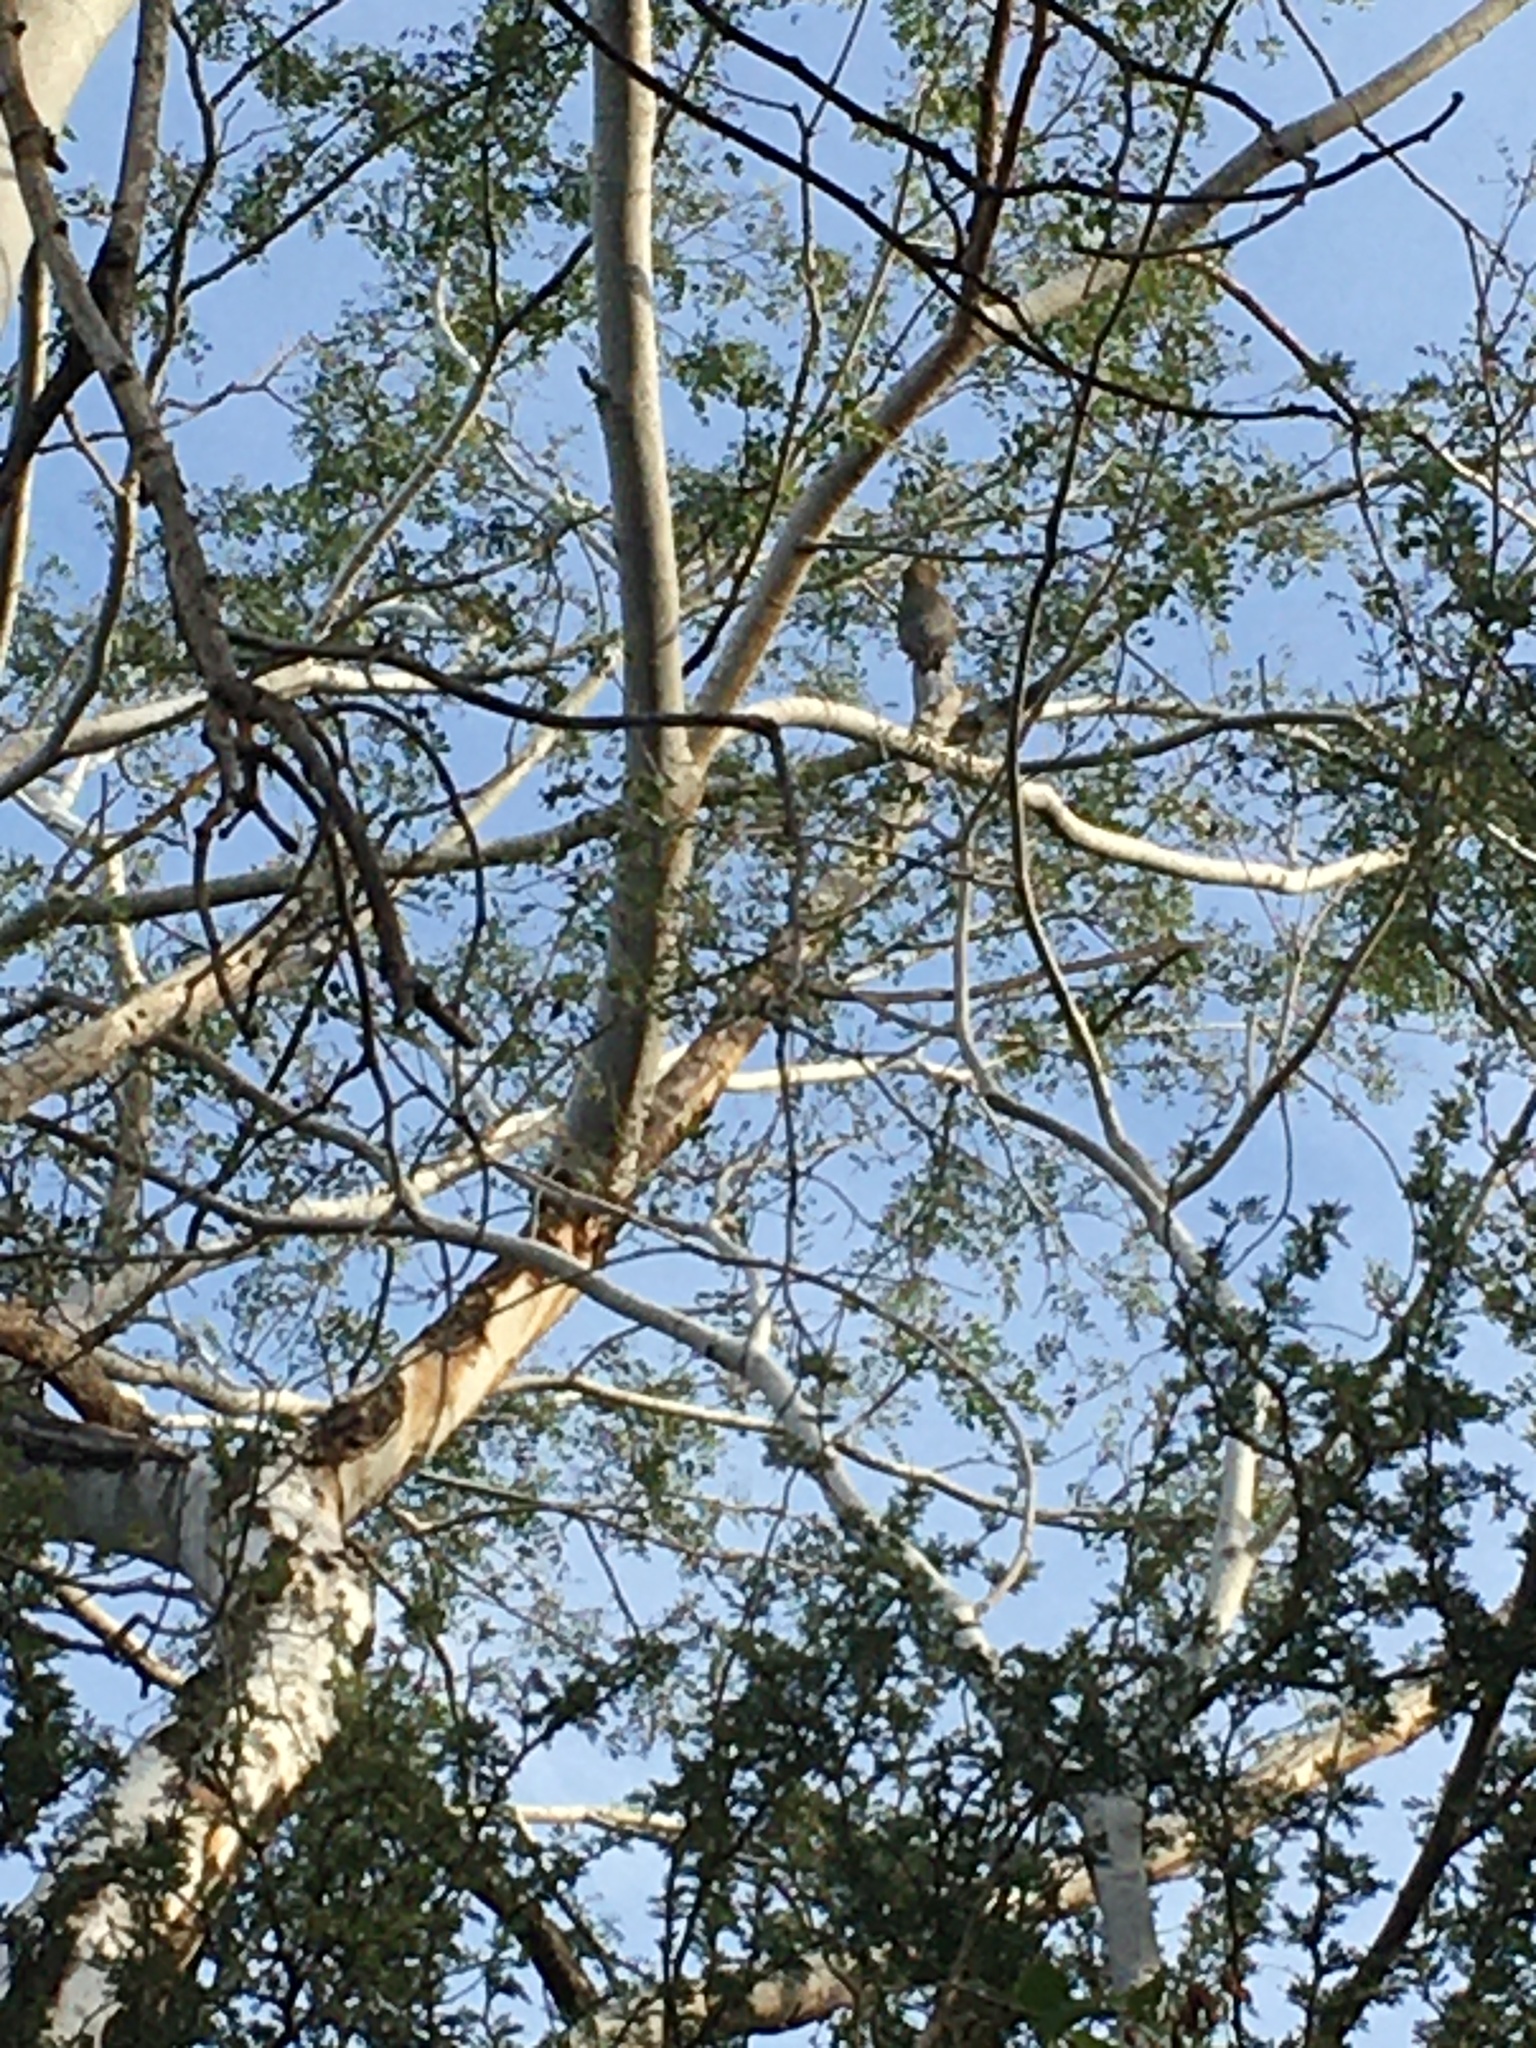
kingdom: Animalia
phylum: Chordata
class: Aves
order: Piciformes
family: Picidae
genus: Melanerpes
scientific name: Melanerpes uropygialis
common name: Gila woodpecker
